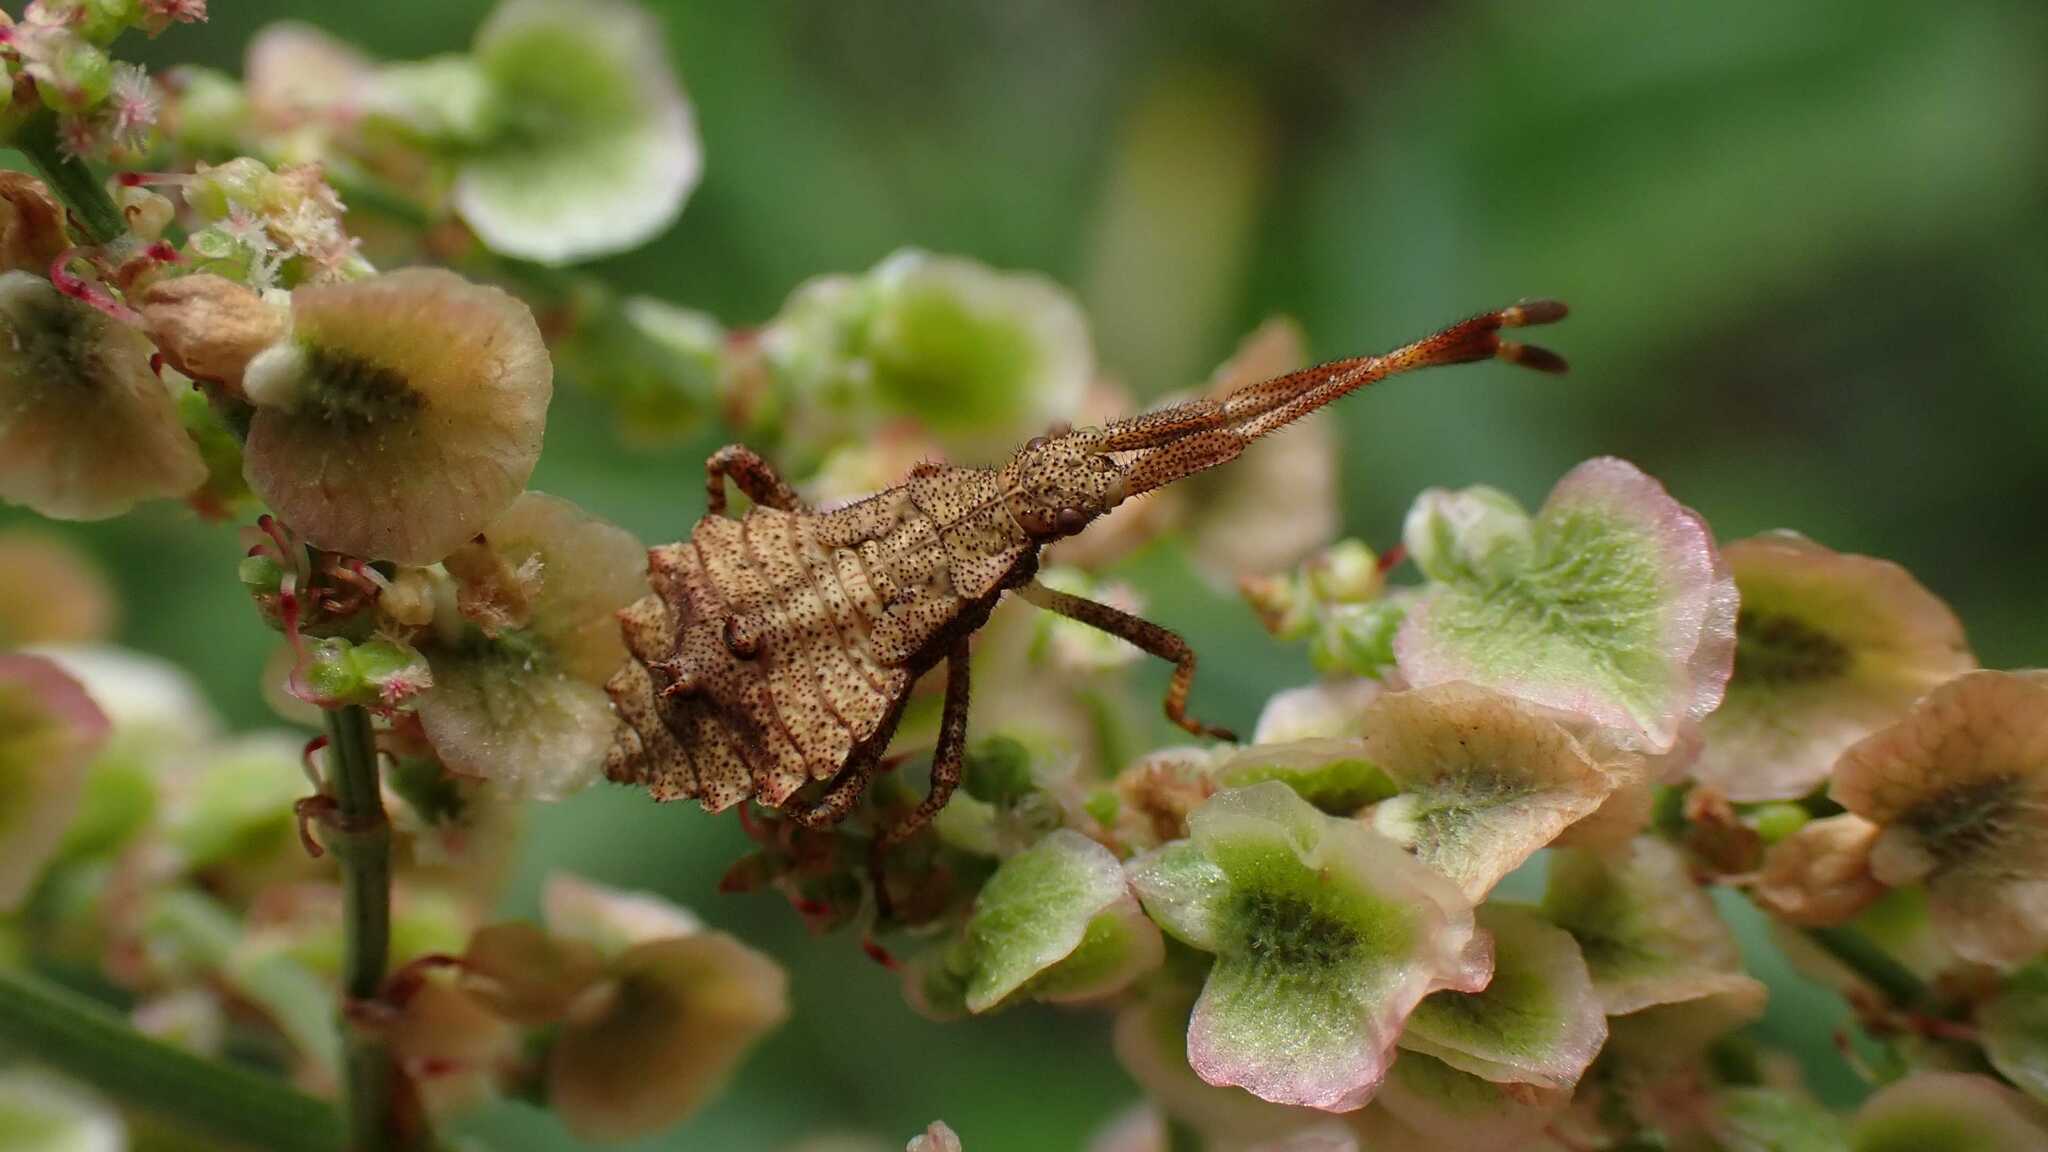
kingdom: Animalia
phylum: Arthropoda
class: Insecta
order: Hemiptera
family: Coreidae
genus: Coreus
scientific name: Coreus marginatus
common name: Dock bug
